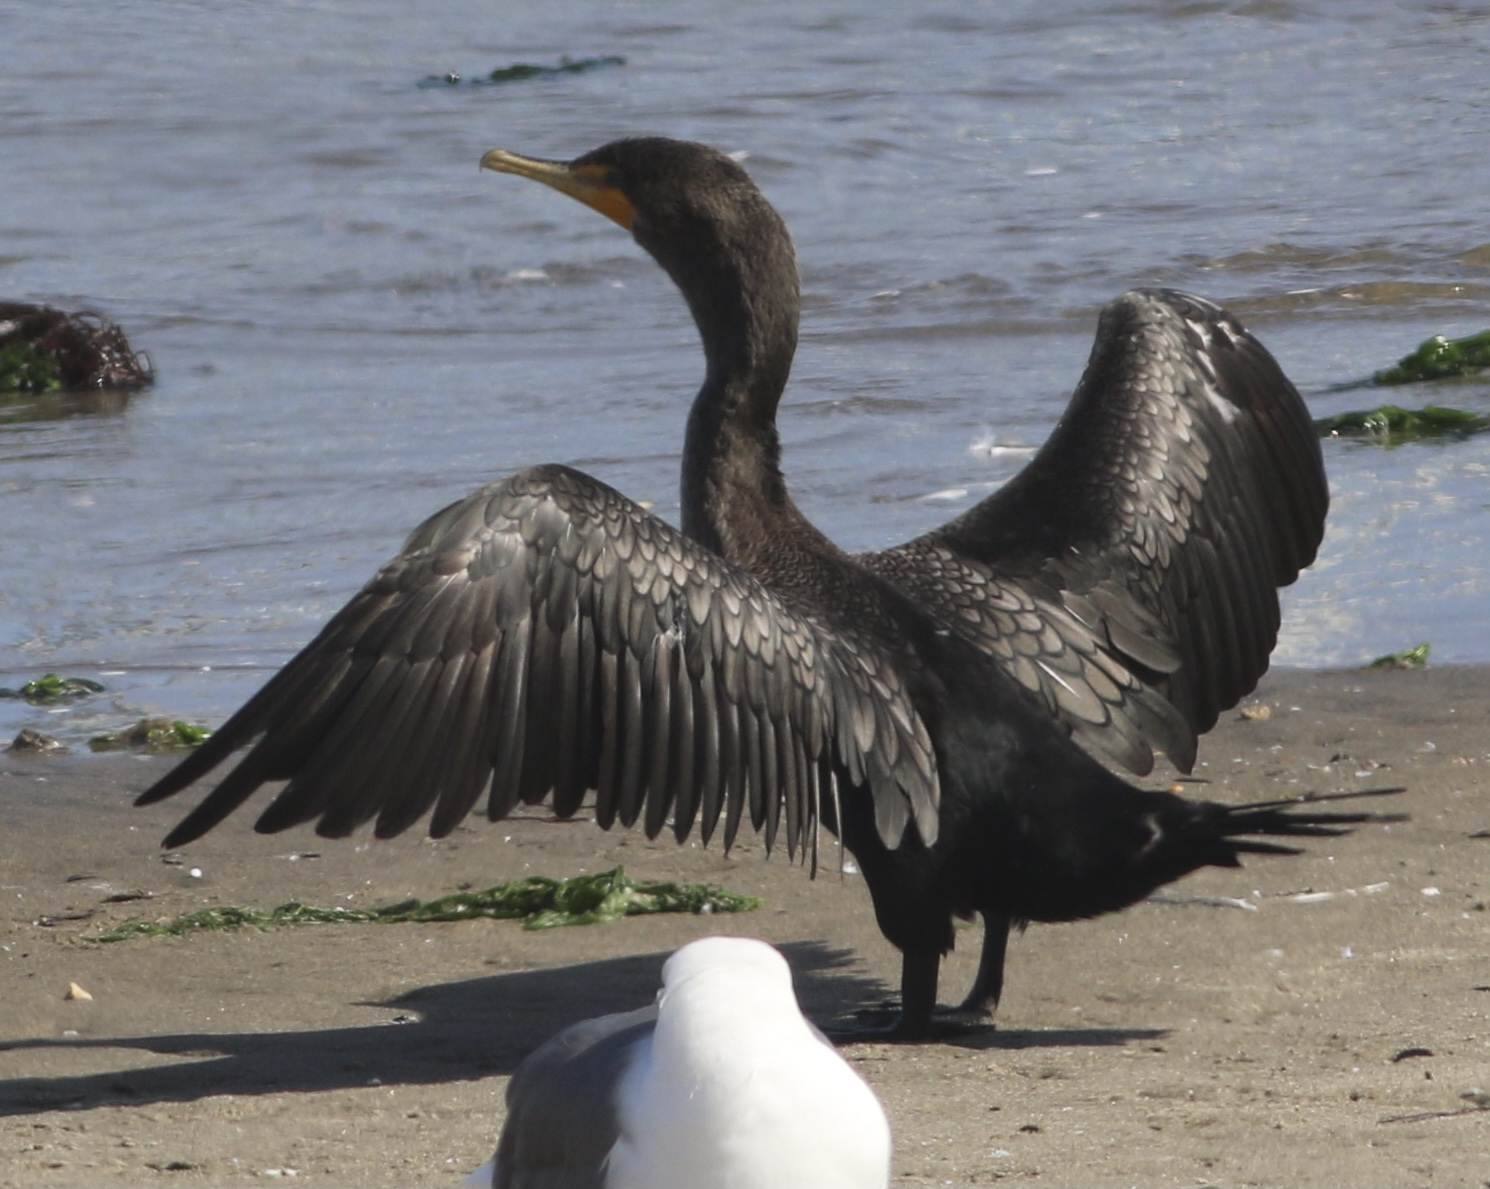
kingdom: Animalia
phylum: Chordata
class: Aves
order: Suliformes
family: Phalacrocoracidae
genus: Phalacrocorax
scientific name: Phalacrocorax auritus
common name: Double-crested cormorant
